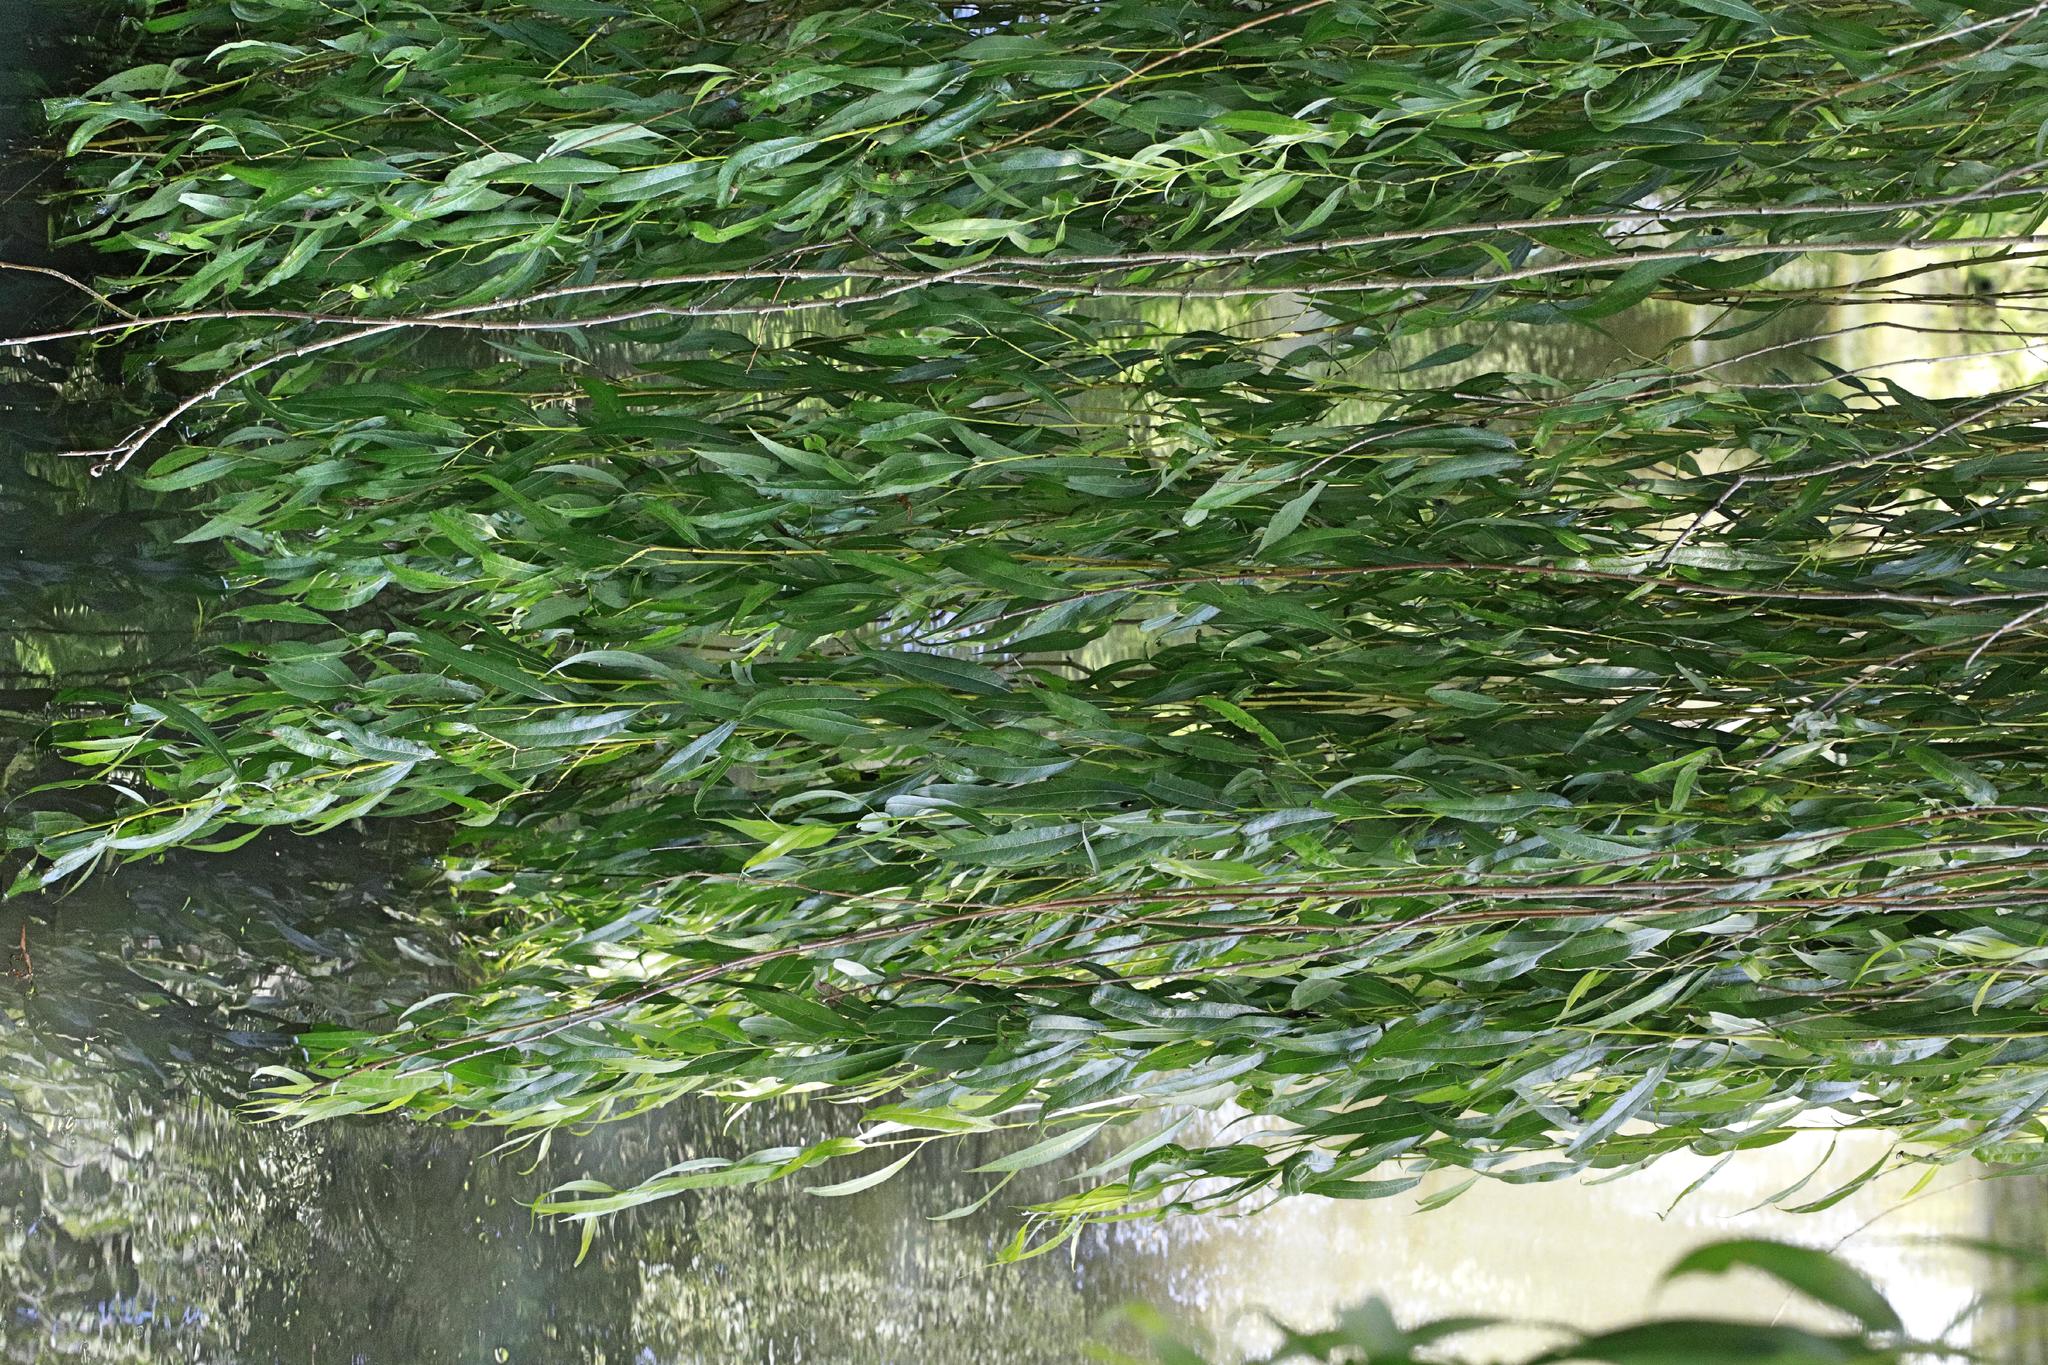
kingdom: Plantae
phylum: Tracheophyta
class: Magnoliopsida
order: Malpighiales
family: Salicaceae
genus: Salix
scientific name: Salix pendulina
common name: Wisconsin weeping willow
